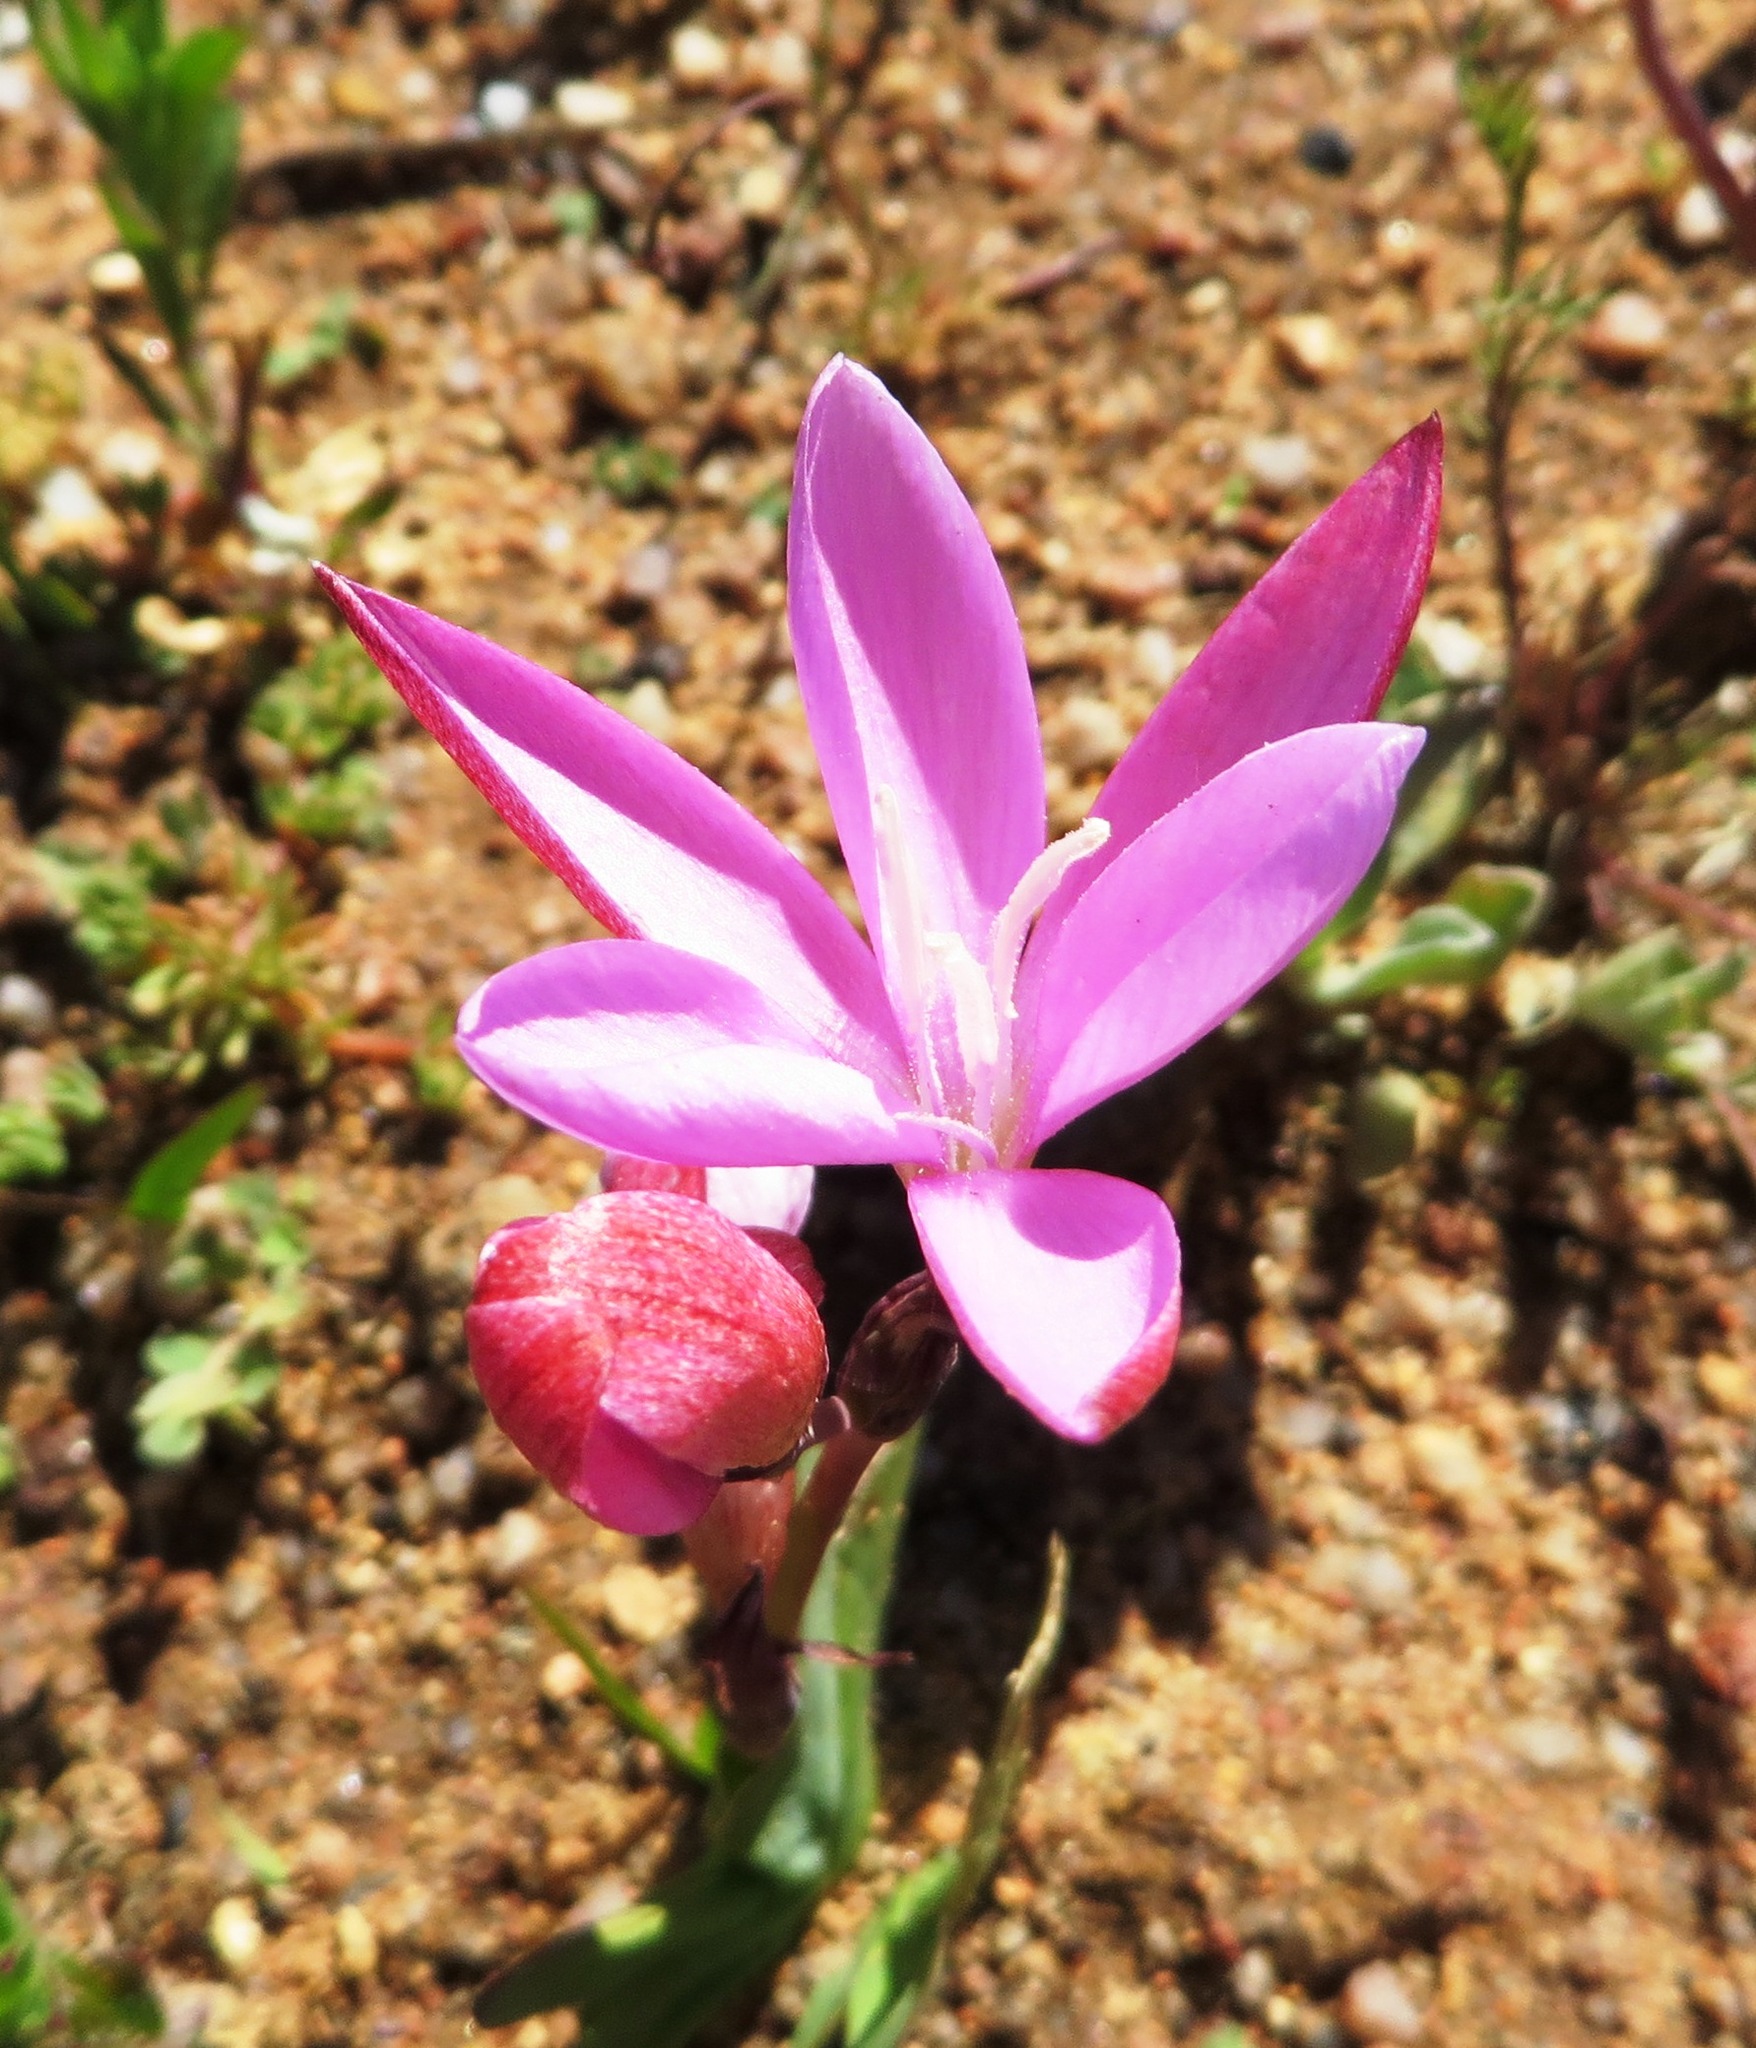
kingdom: Plantae
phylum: Tracheophyta
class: Liliopsida
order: Asparagales
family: Iridaceae
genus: Hesperantha
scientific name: Hesperantha pauciflora
